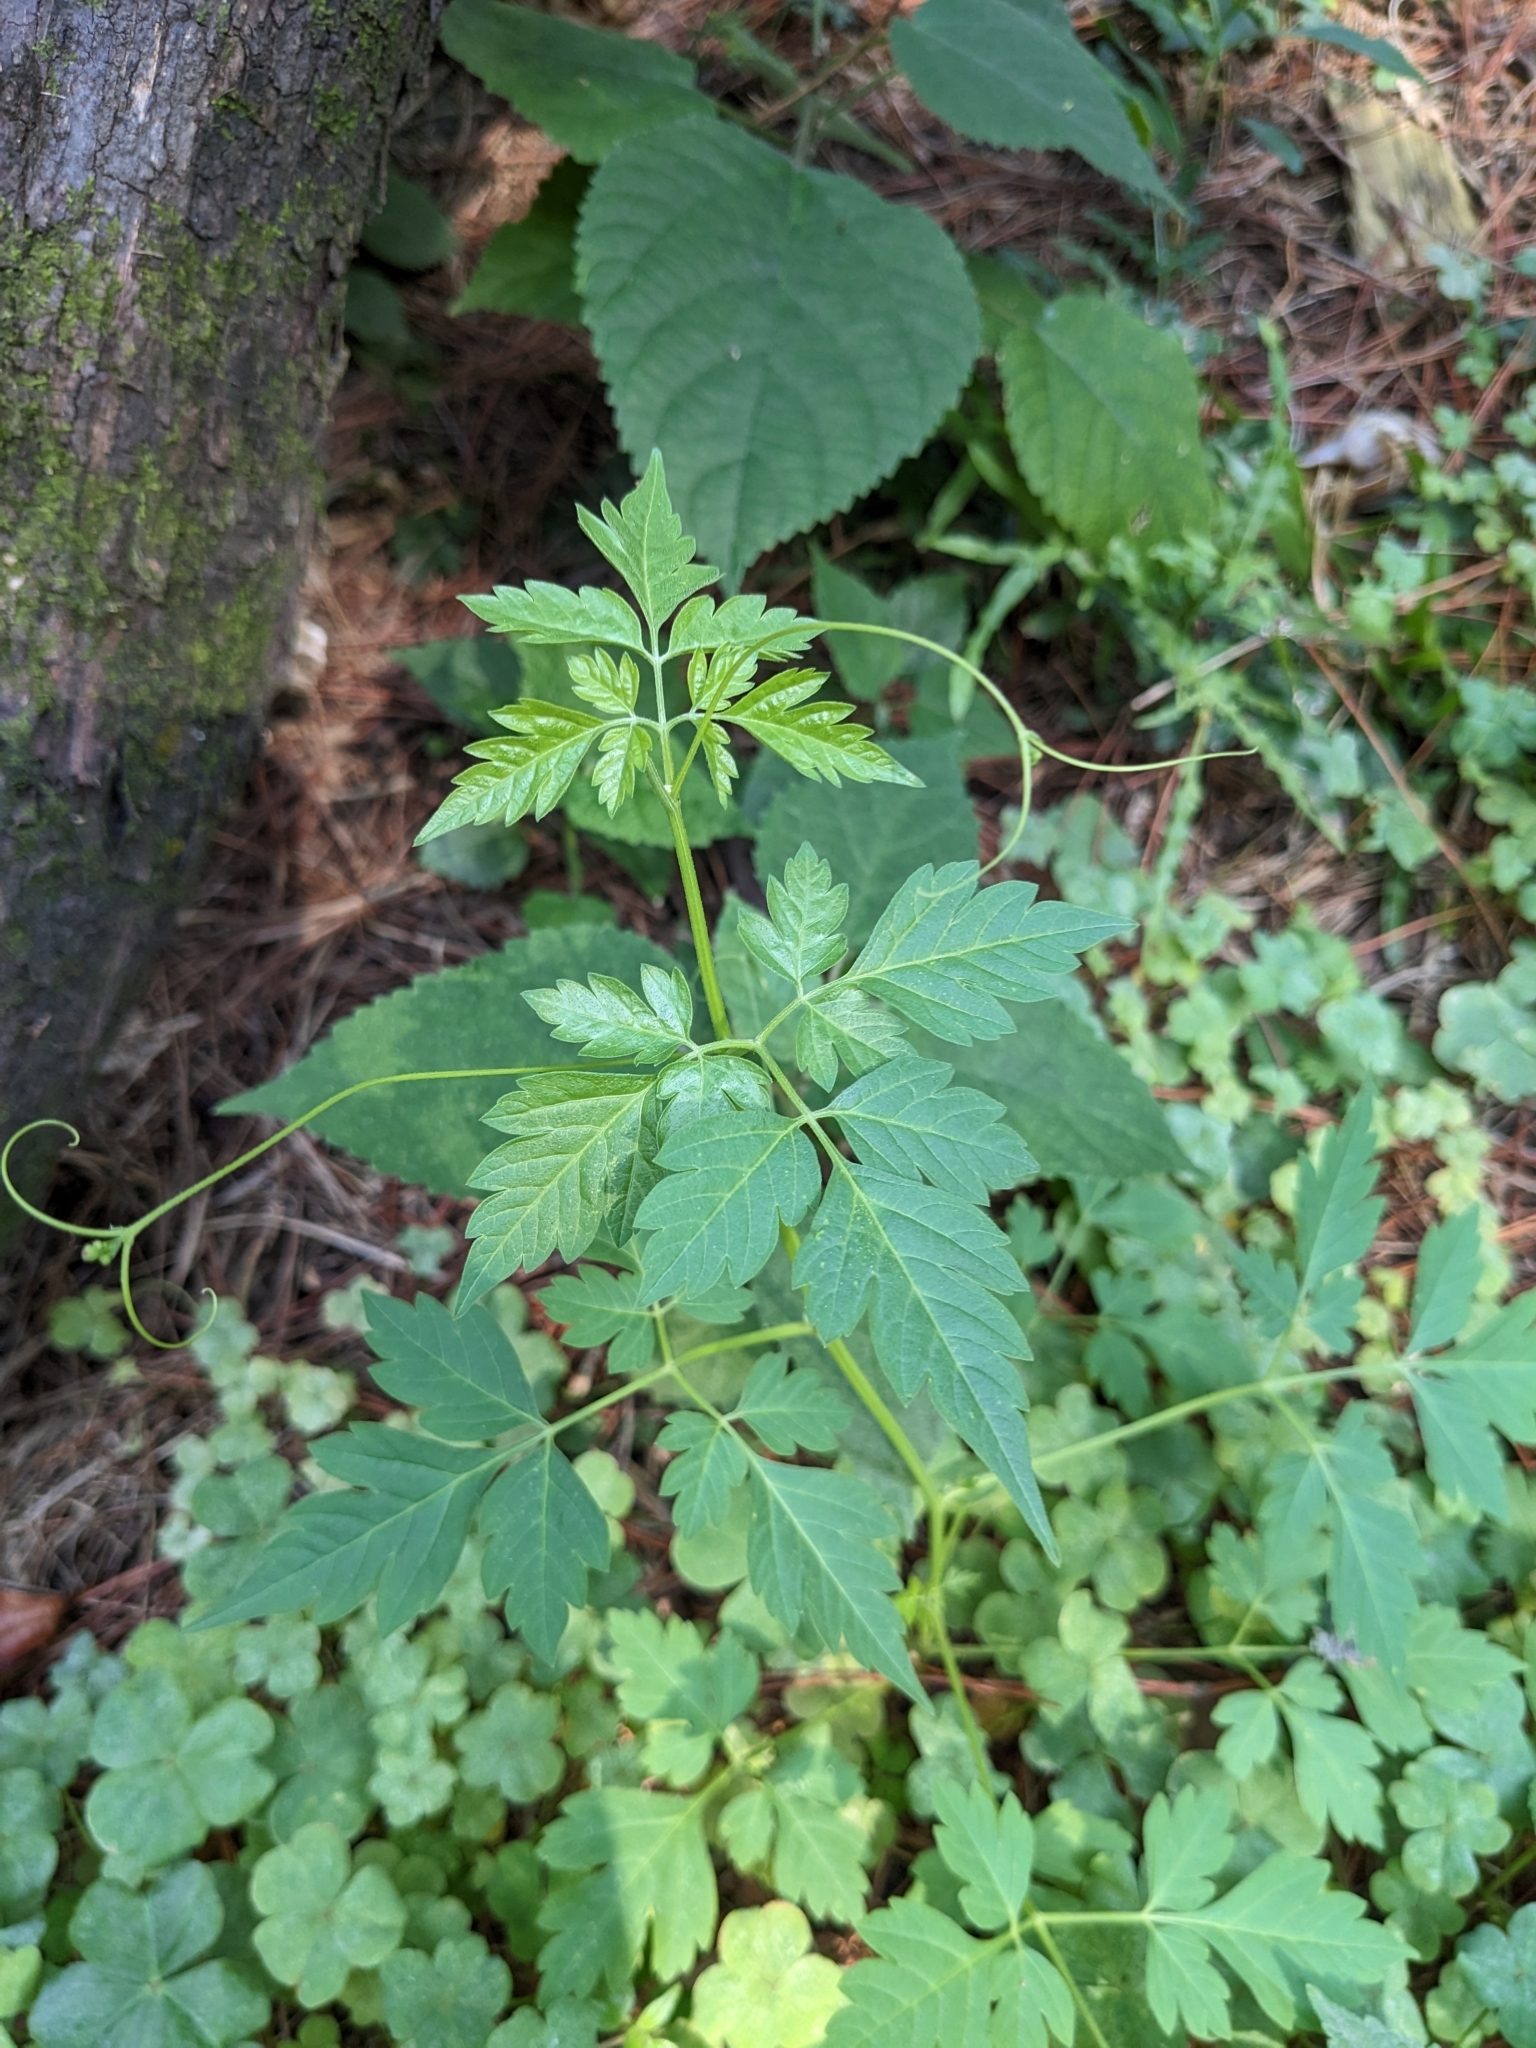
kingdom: Plantae
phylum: Tracheophyta
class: Magnoliopsida
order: Sapindales
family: Sapindaceae
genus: Cardiospermum
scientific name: Cardiospermum halicacabum
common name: Balloon vine
